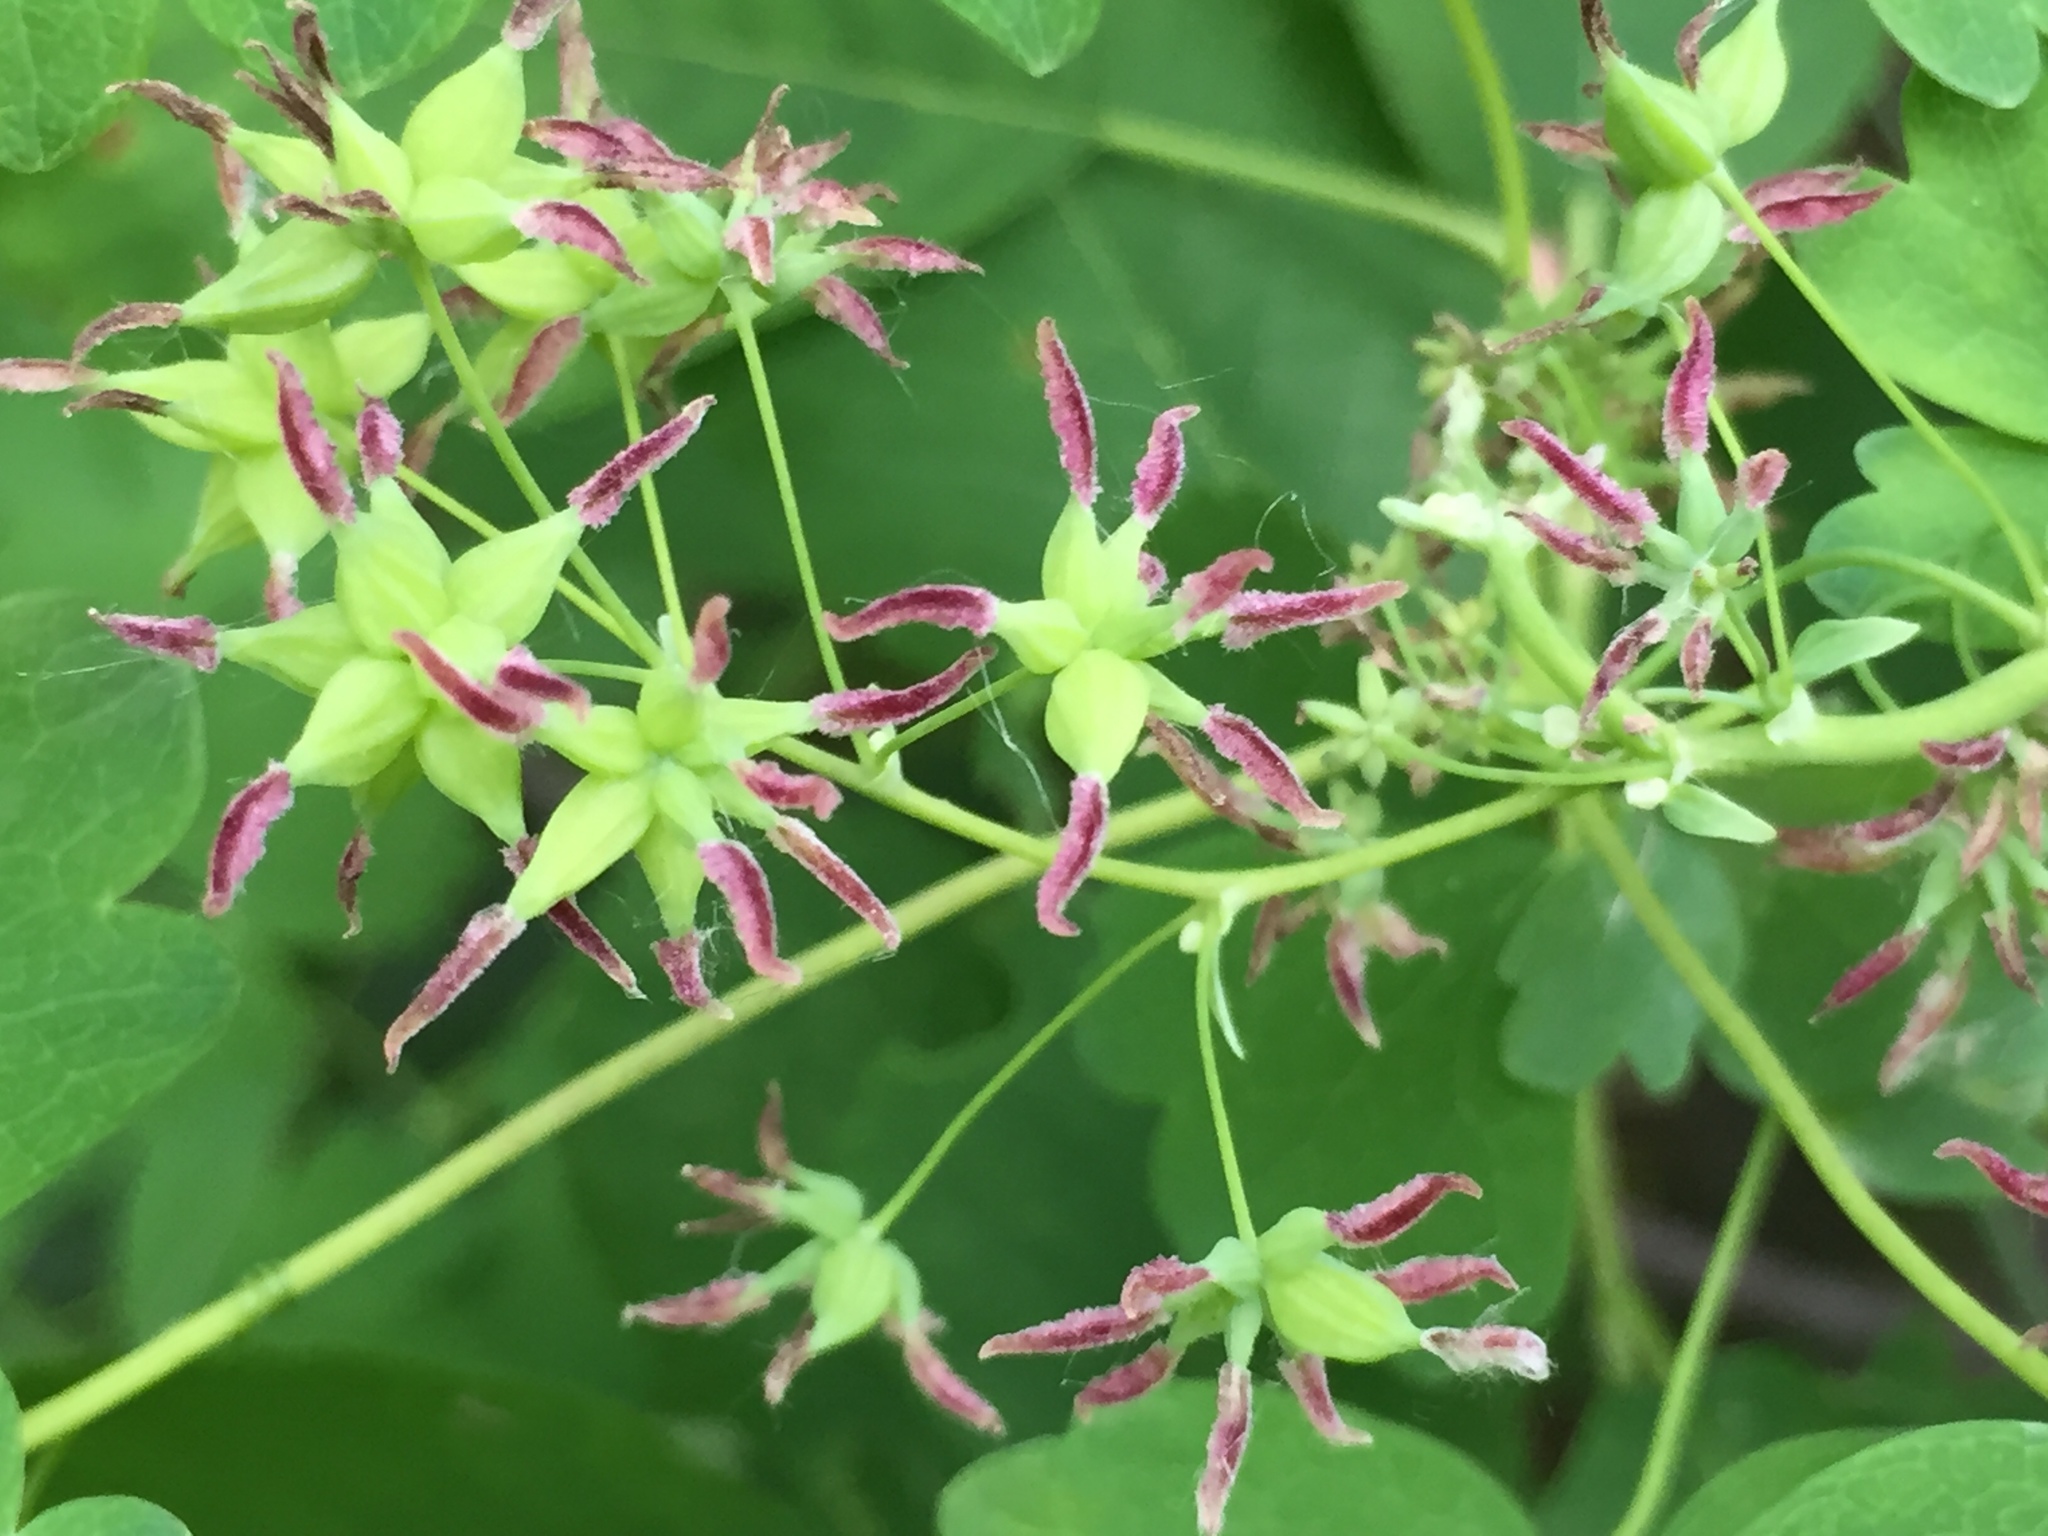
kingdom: Plantae
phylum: Tracheophyta
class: Magnoliopsida
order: Ranunculales
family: Ranunculaceae
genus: Thalictrum
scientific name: Thalictrum venulosum
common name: Early meadow-rue
